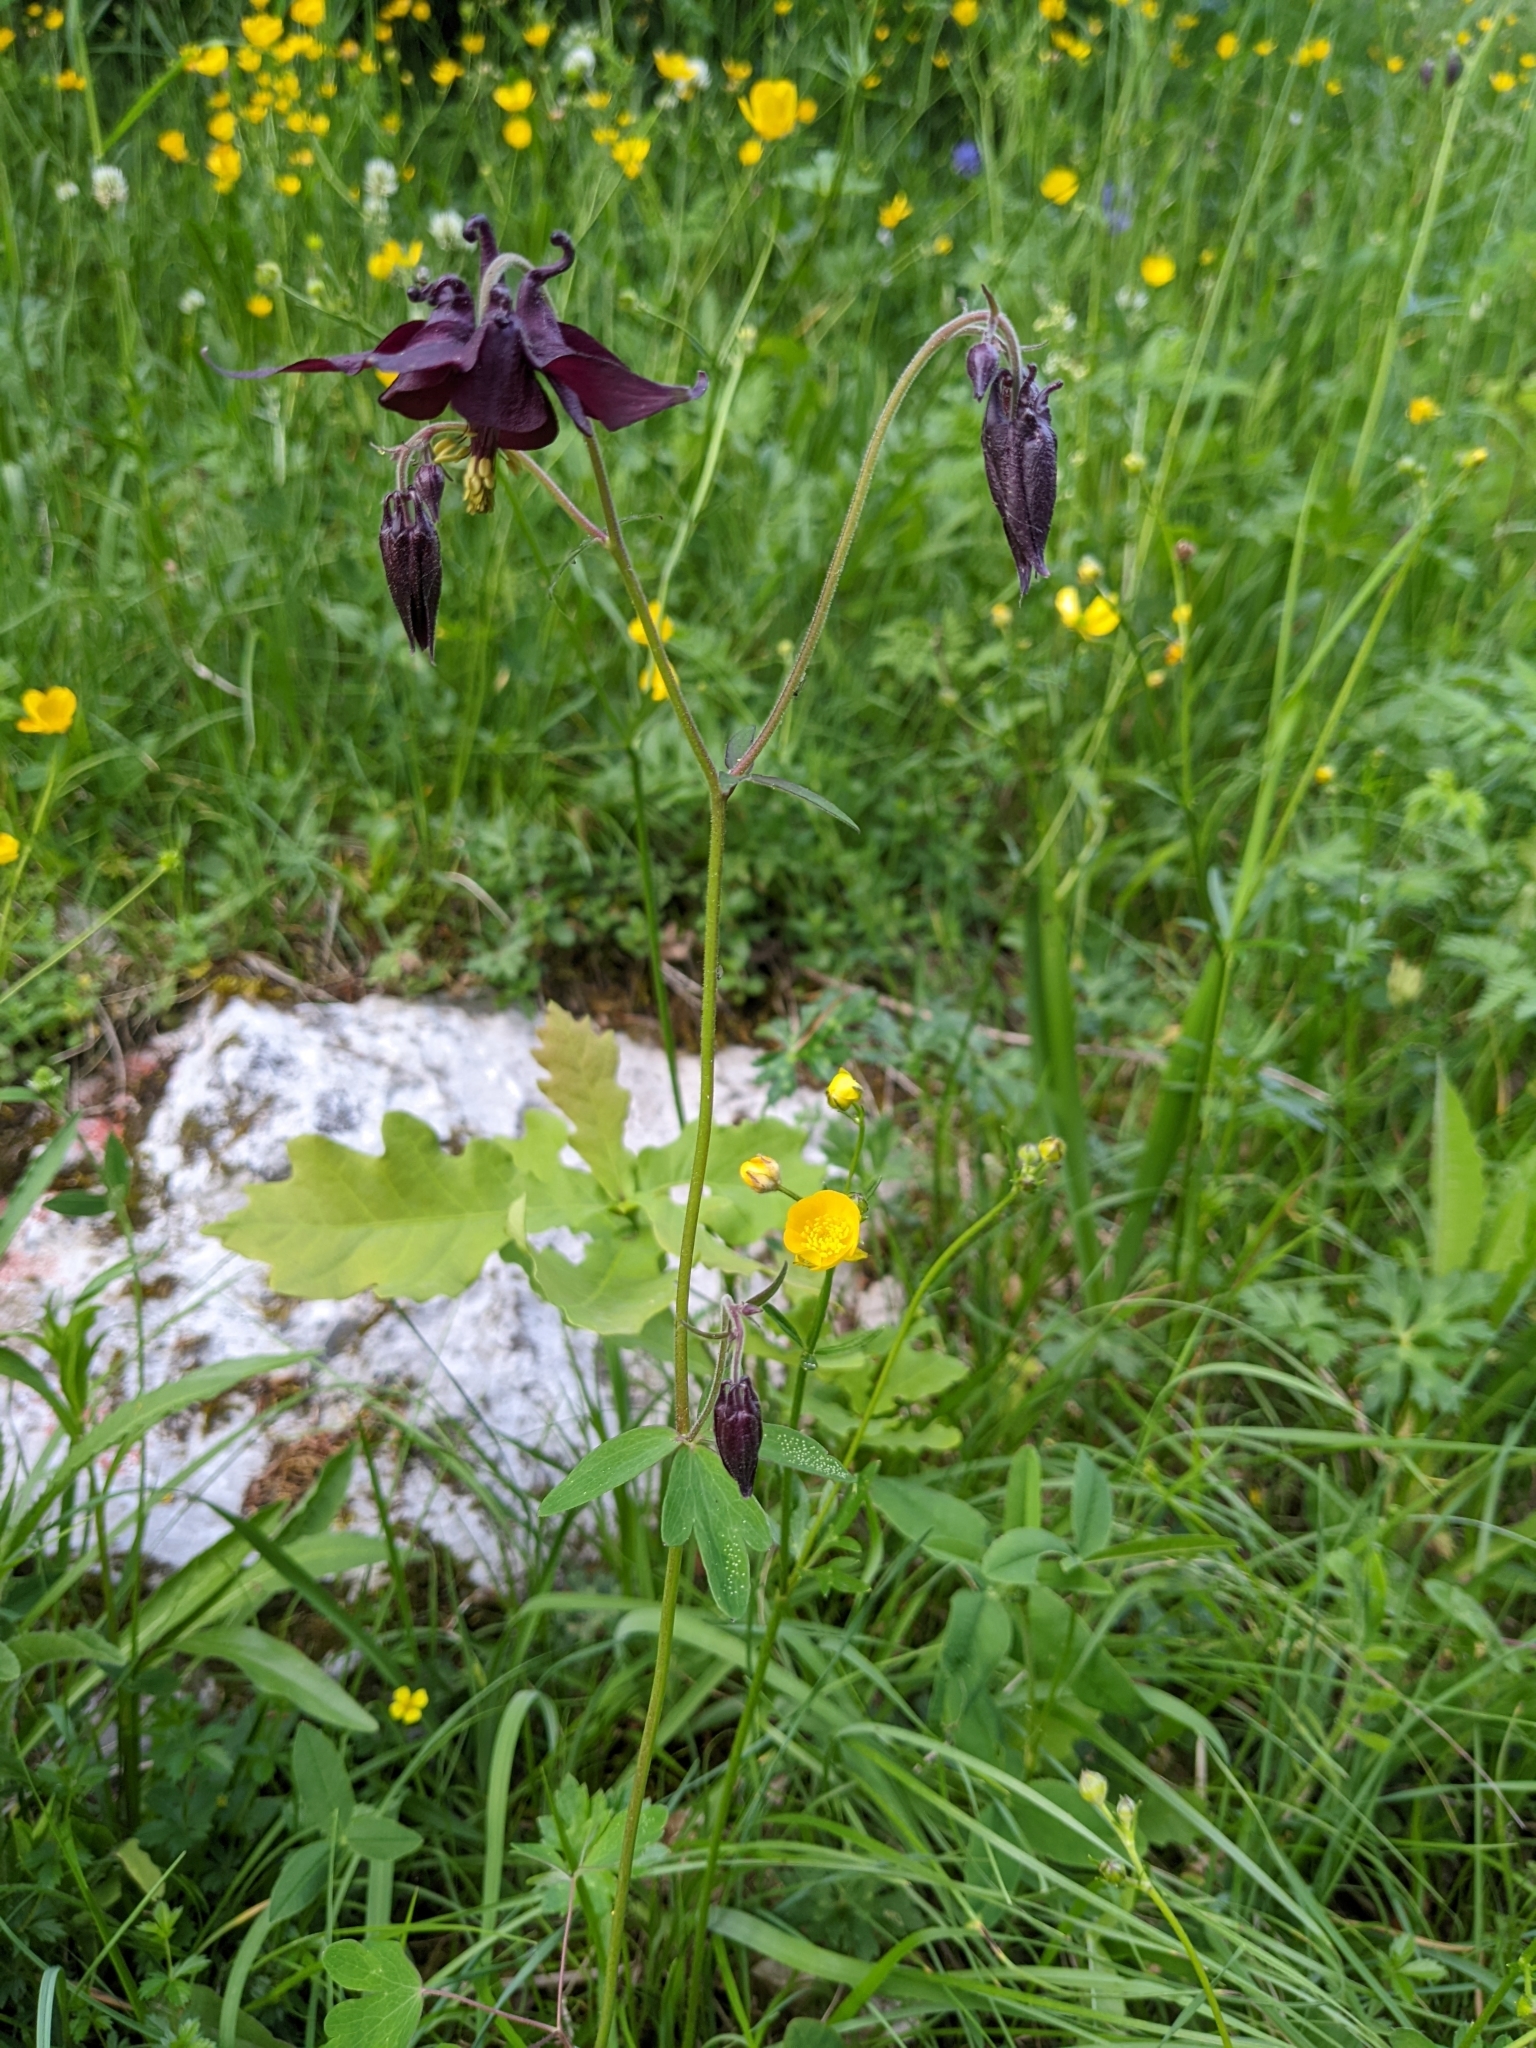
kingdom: Plantae
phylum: Tracheophyta
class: Magnoliopsida
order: Ranunculales
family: Ranunculaceae
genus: Aquilegia
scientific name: Aquilegia atrata
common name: Dark columbine
